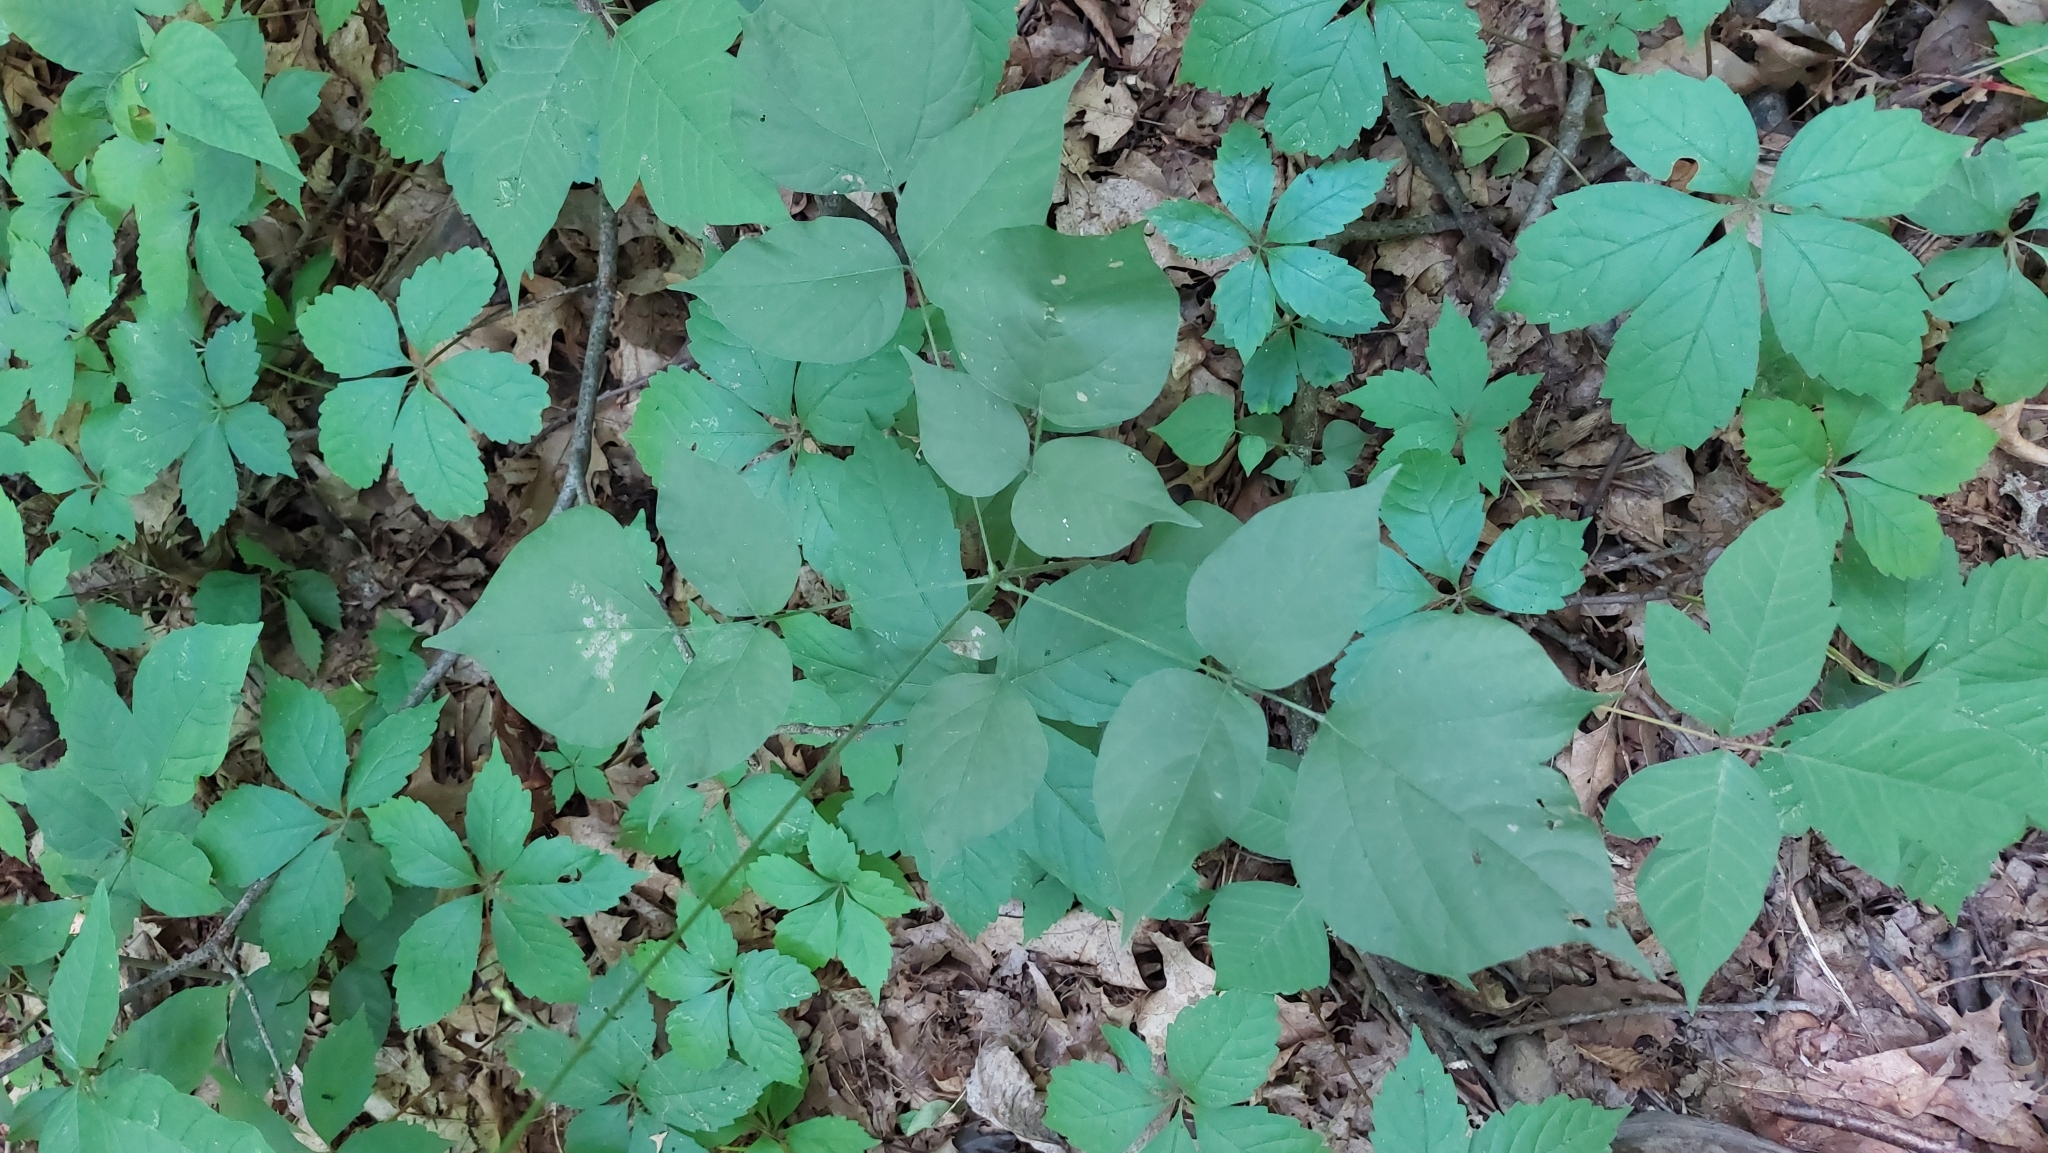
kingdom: Plantae
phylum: Tracheophyta
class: Magnoliopsida
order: Fabales
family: Fabaceae
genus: Hylodesmum
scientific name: Hylodesmum glutinosum
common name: Clustered-leaved tick-trefoil
